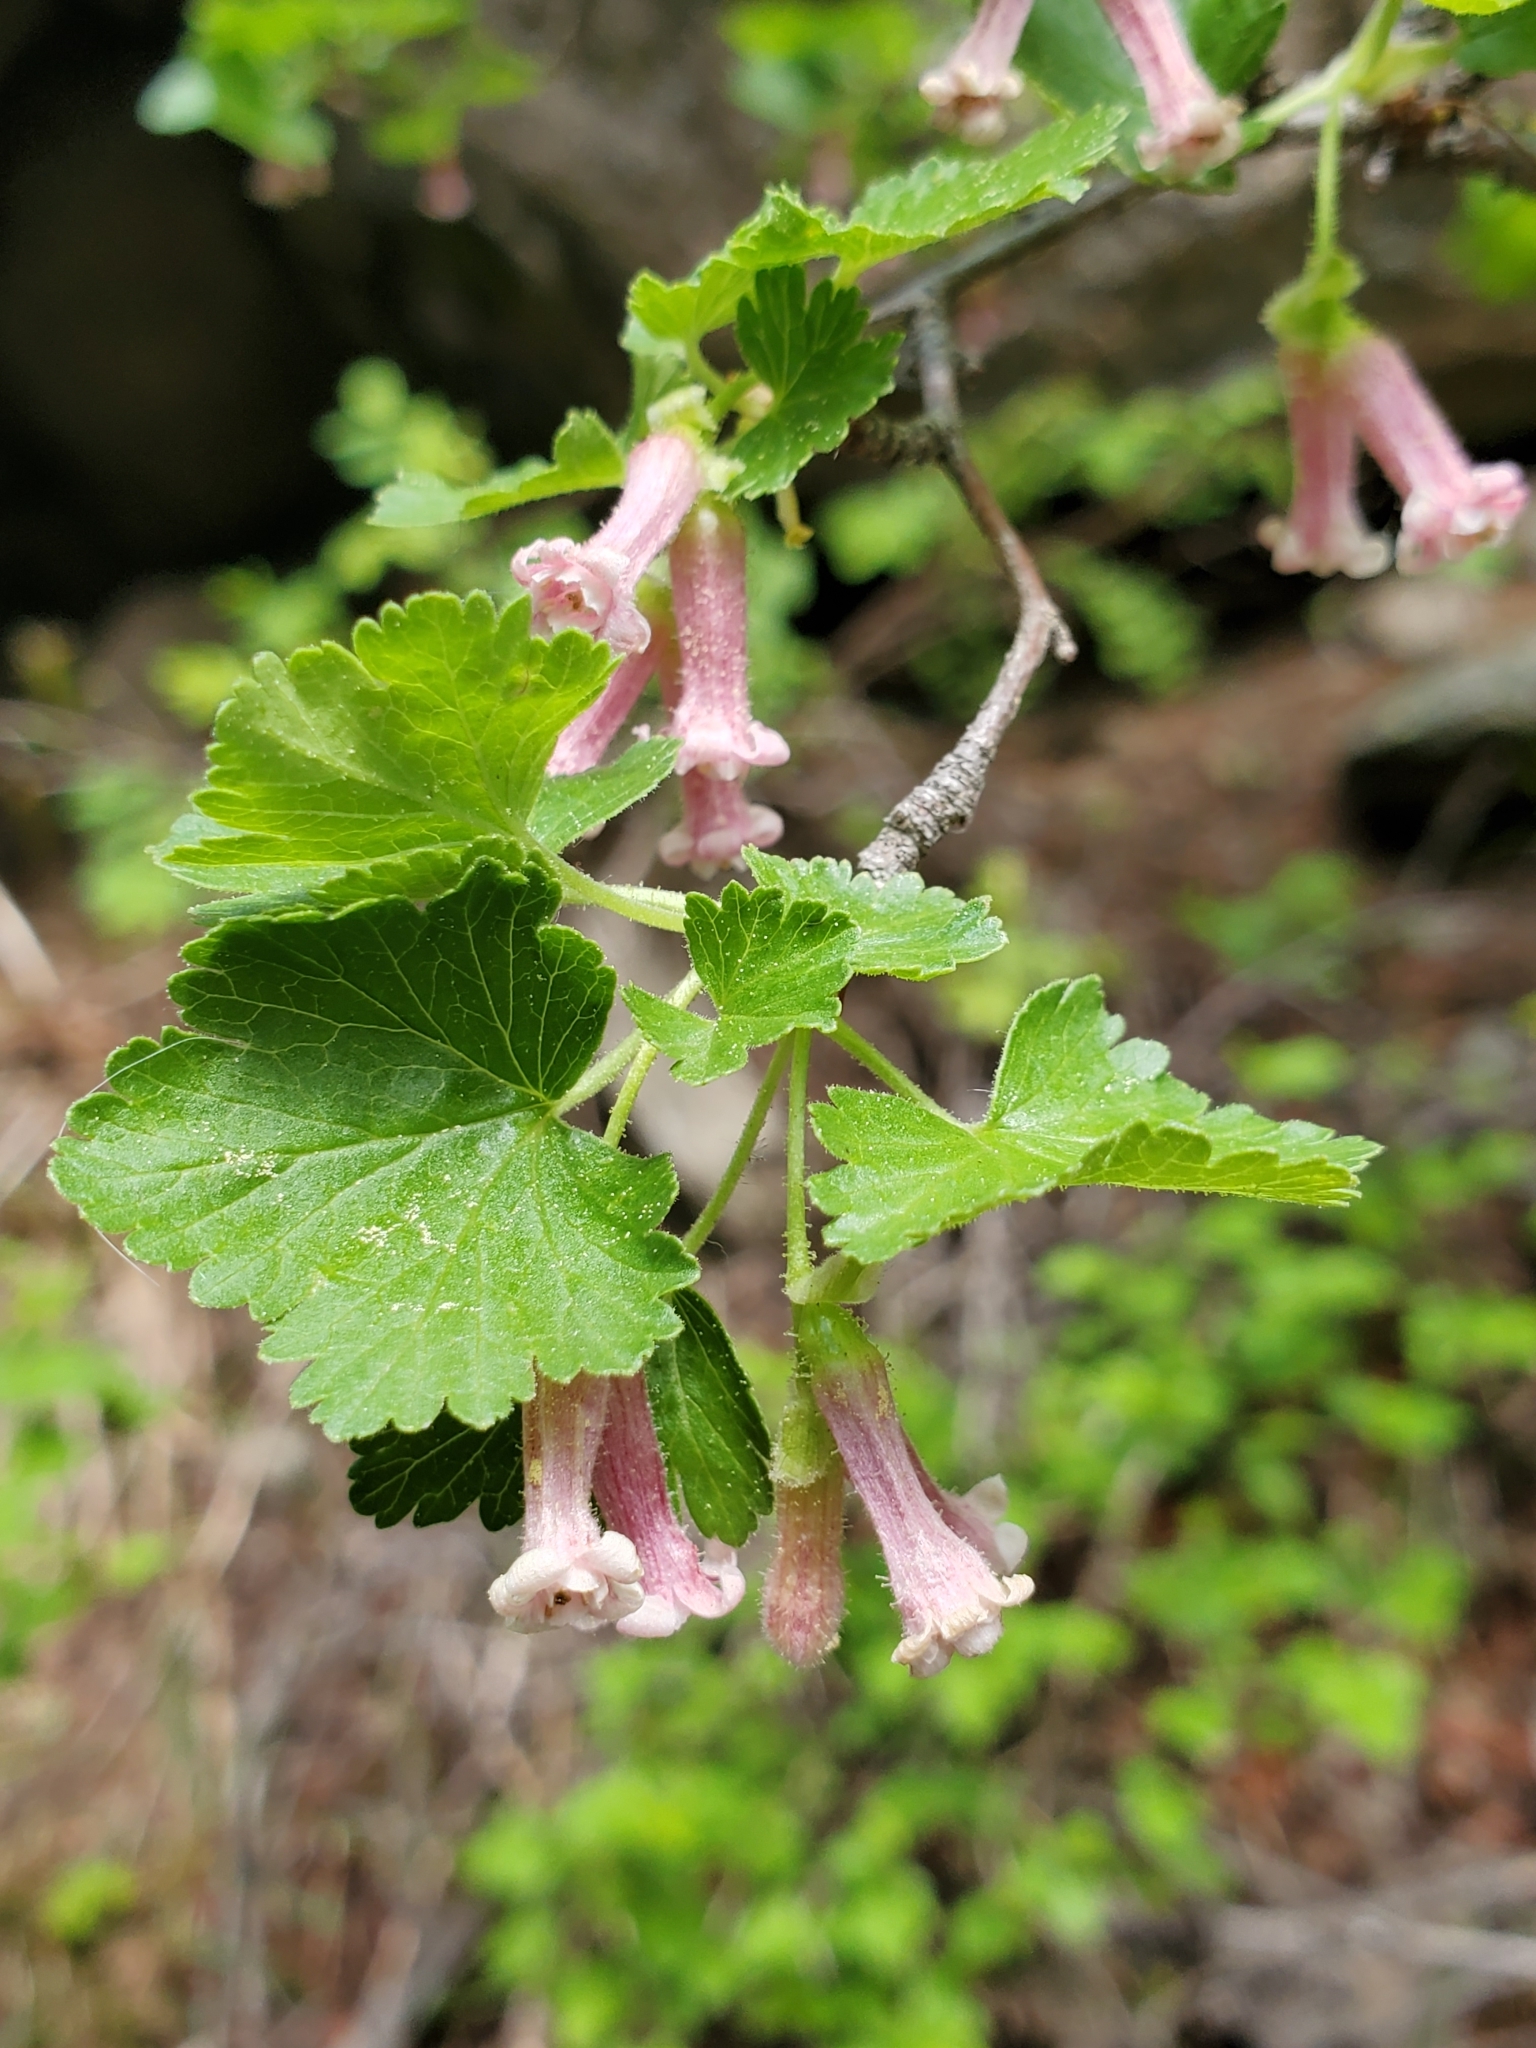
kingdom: Plantae
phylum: Tracheophyta
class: Magnoliopsida
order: Saxifragales
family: Grossulariaceae
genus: Ribes
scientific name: Ribes cereum
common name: Wax currant
